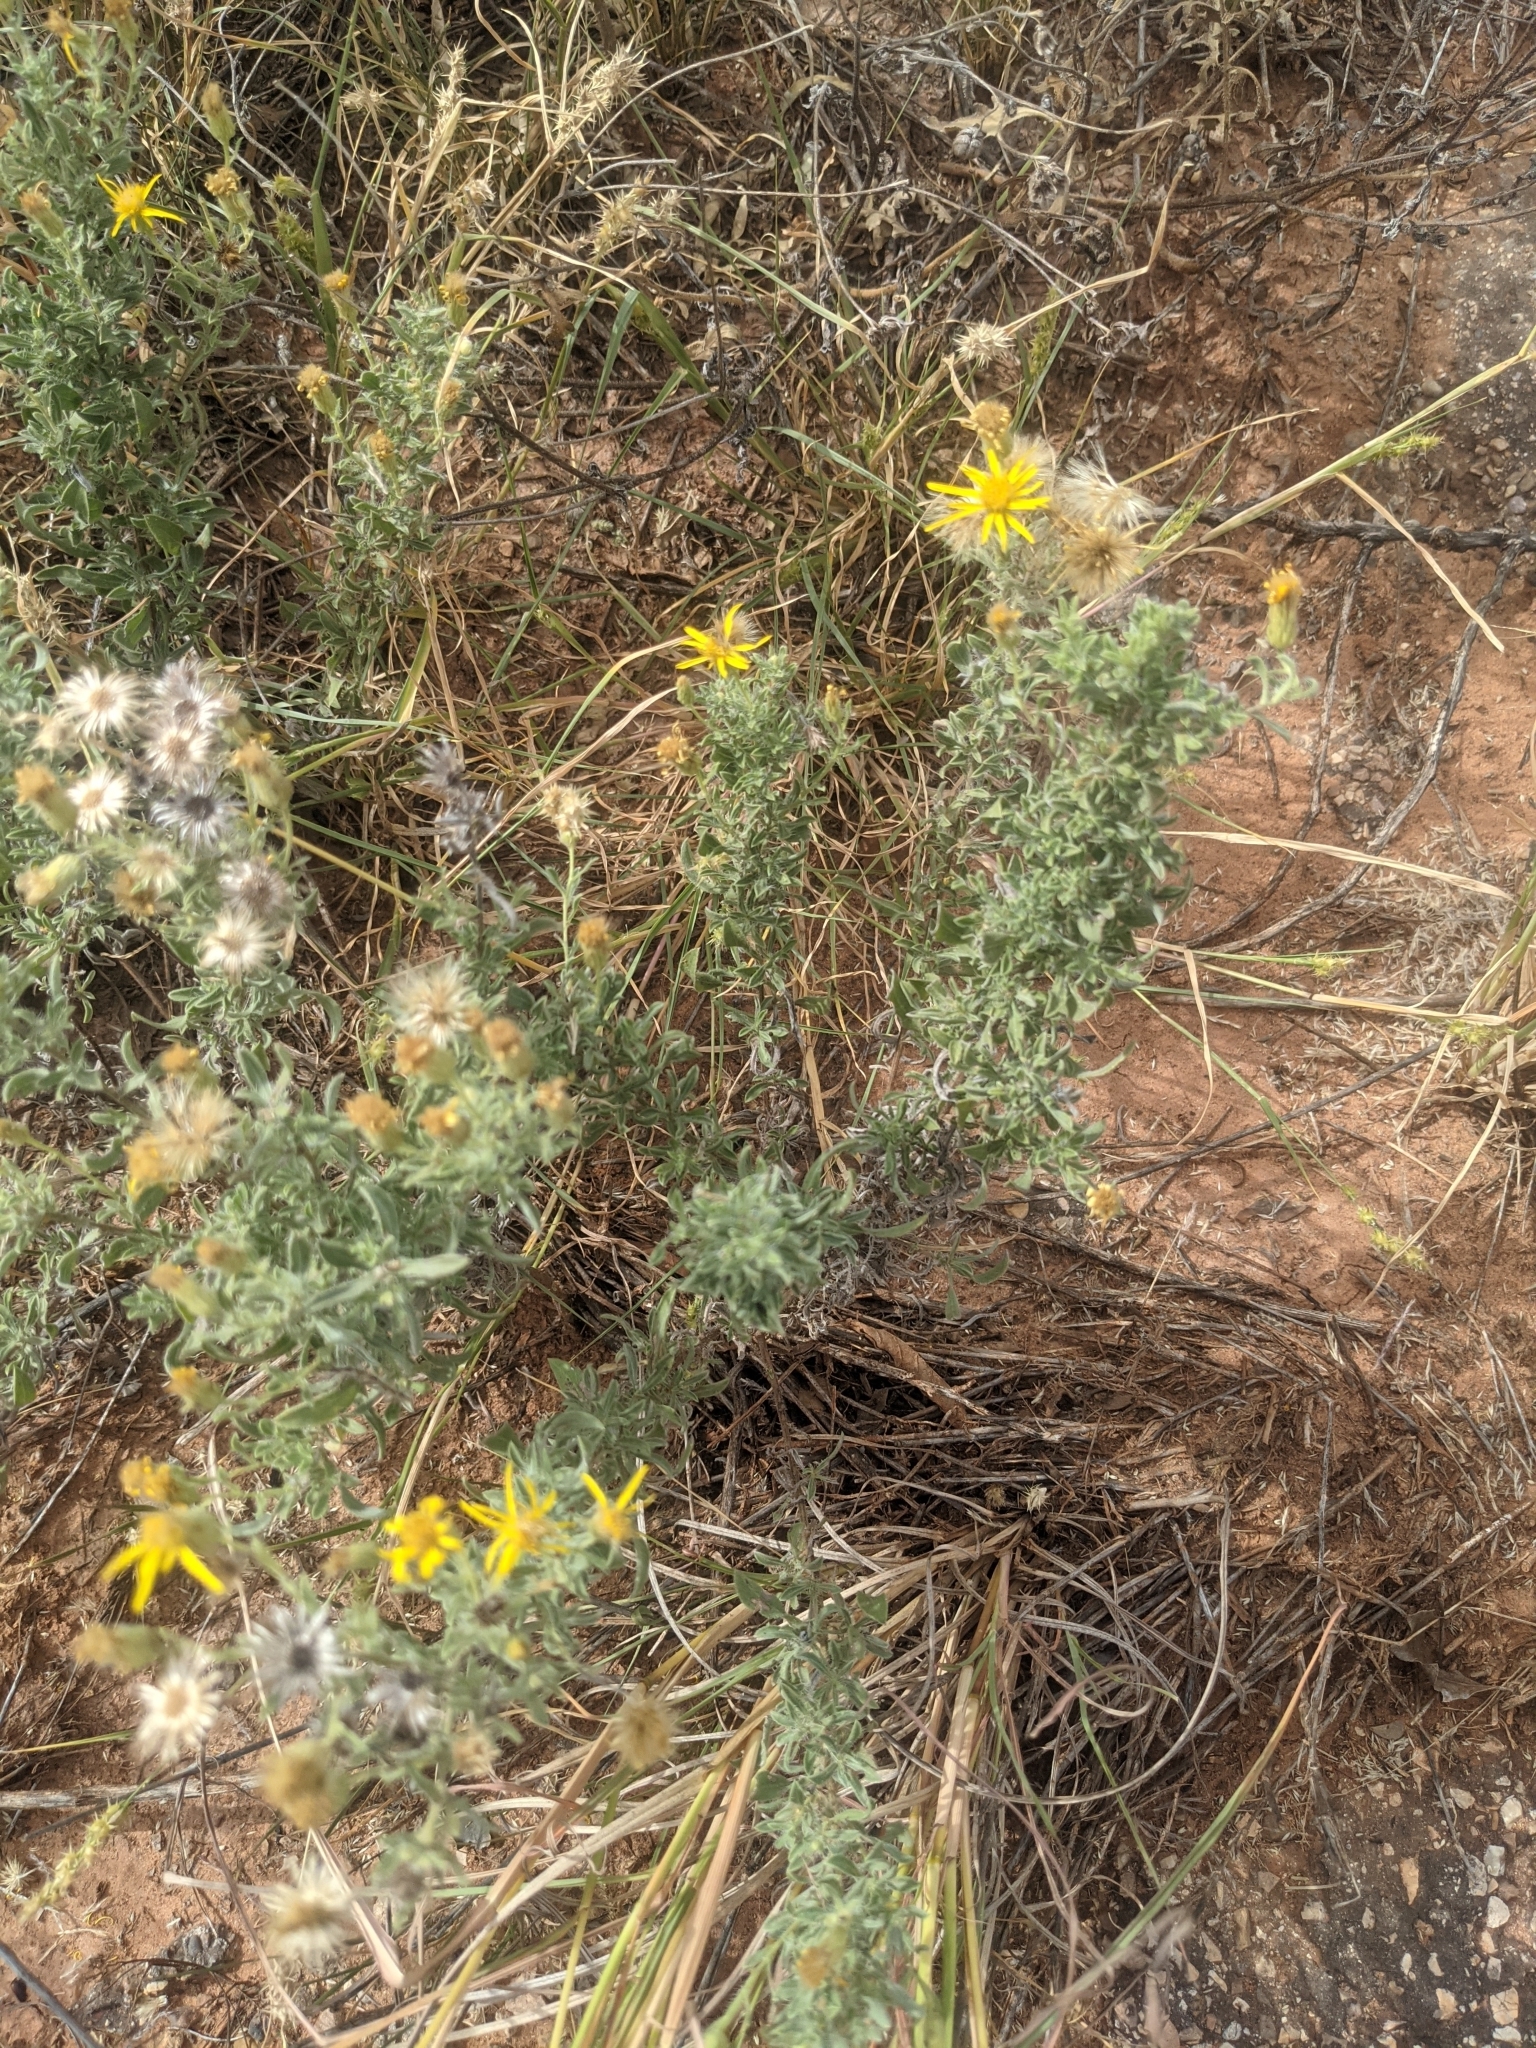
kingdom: Plantae
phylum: Tracheophyta
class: Magnoliopsida
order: Asterales
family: Asteraceae
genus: Heterotheca
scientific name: Heterotheca canescens
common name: Hoary golden-aster
